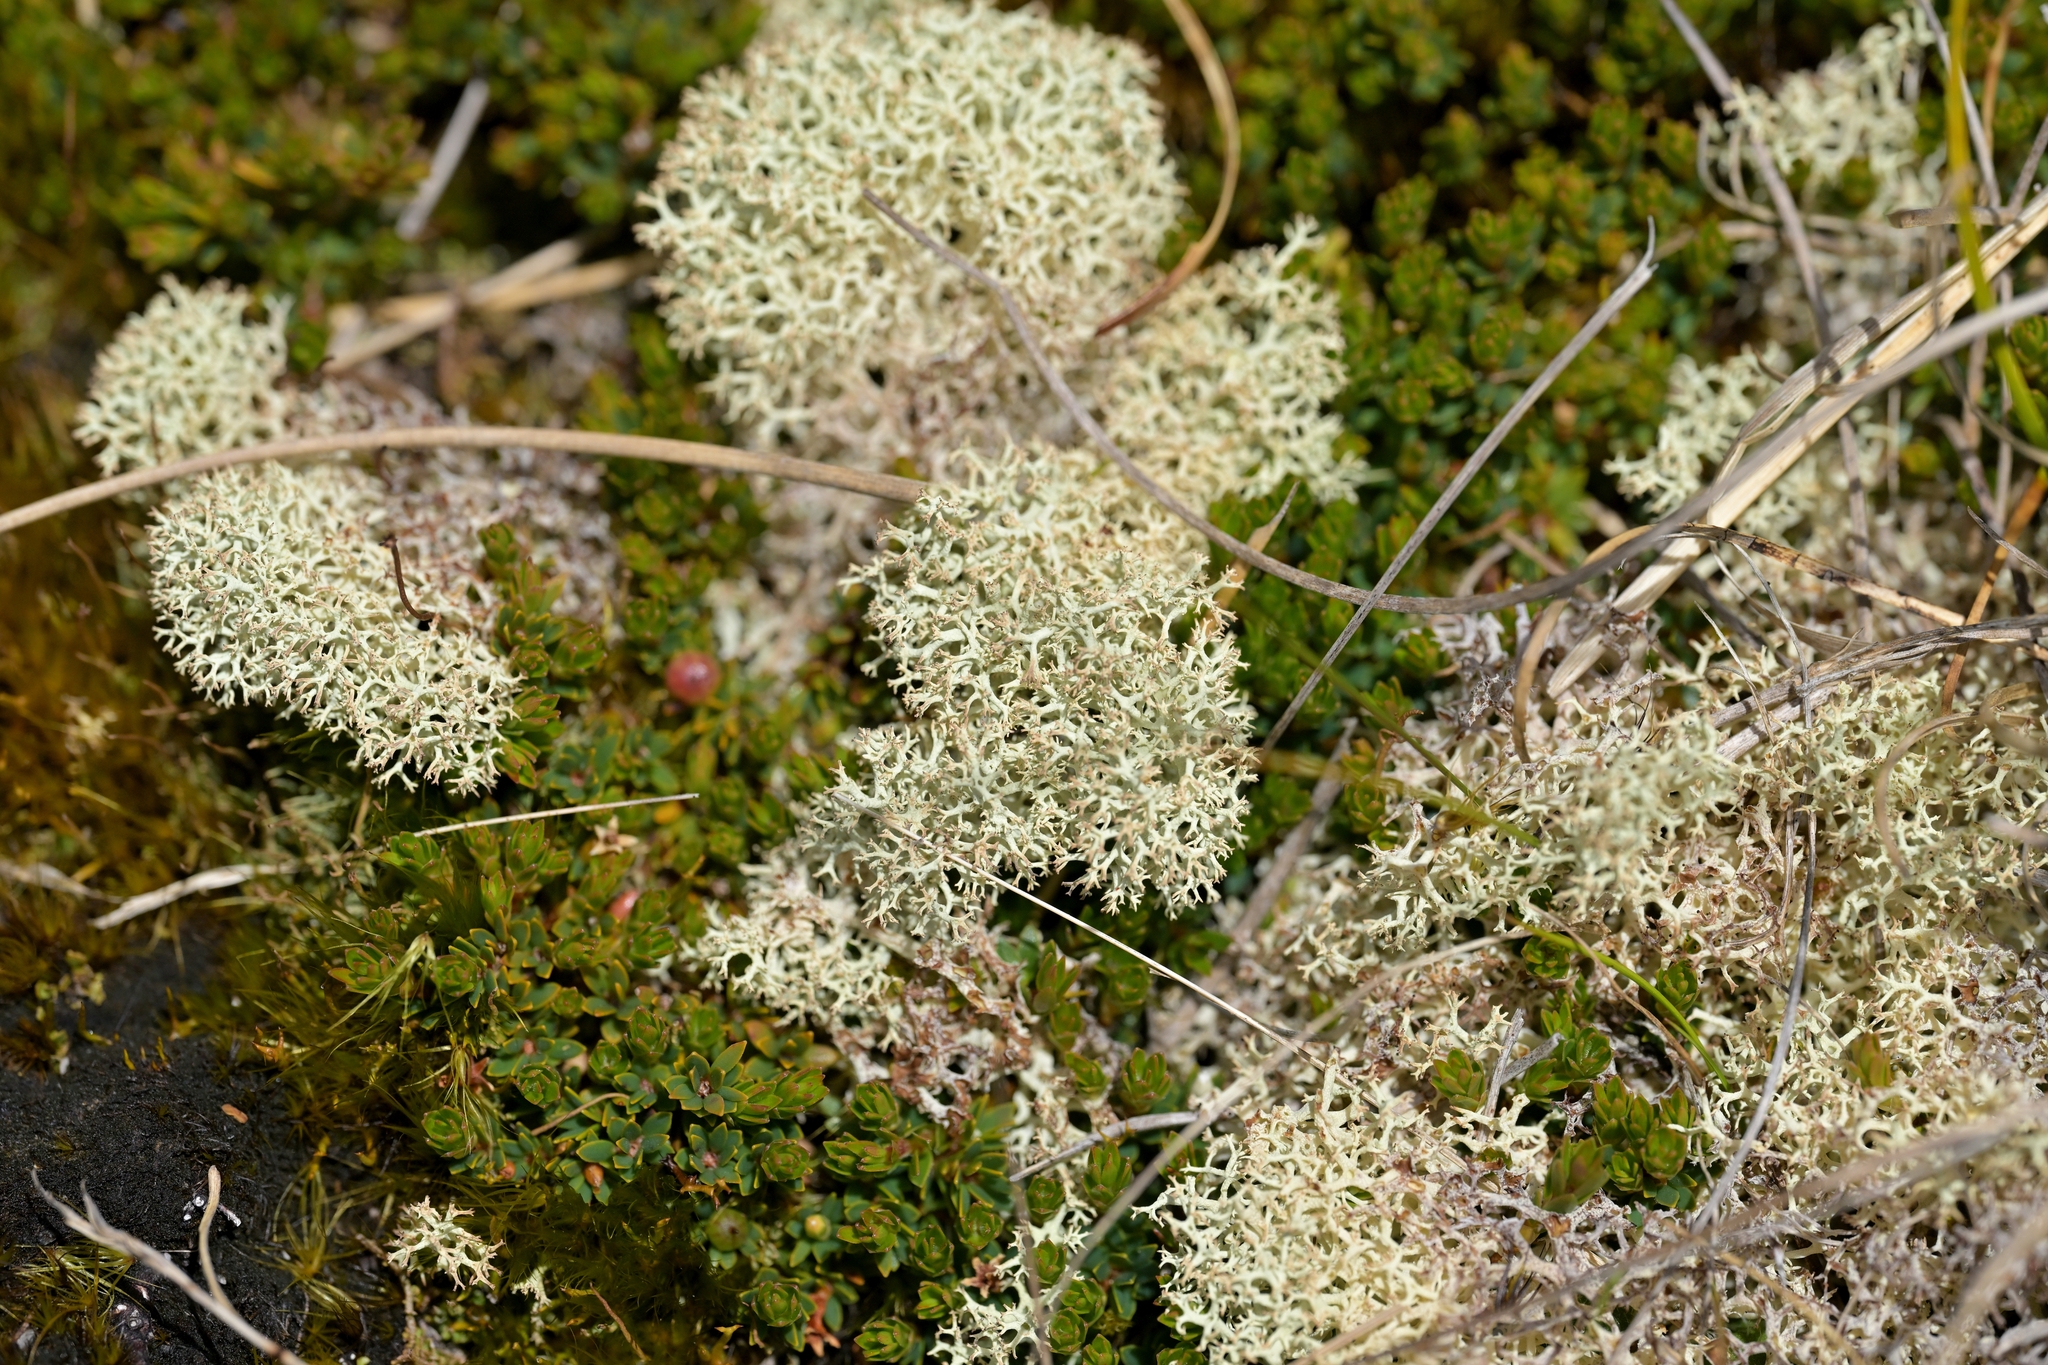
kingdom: Fungi
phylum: Ascomycota
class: Lecanoromycetes
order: Lecanorales
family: Cladoniaceae
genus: Cladonia
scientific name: Cladonia confusa
